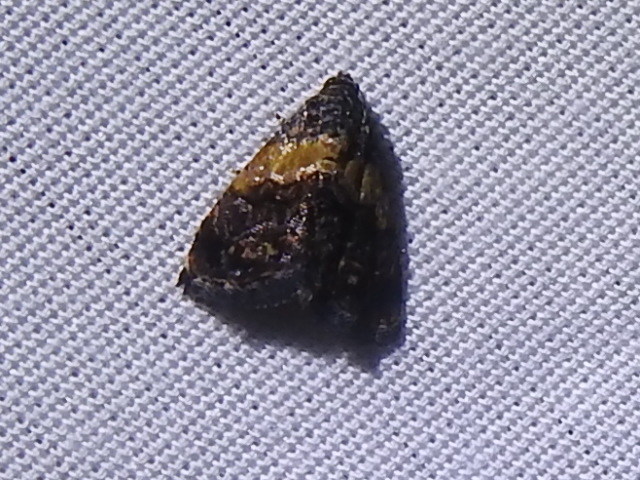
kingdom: Animalia
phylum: Arthropoda
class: Insecta
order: Lepidoptera
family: Noctuidae
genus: Tripudia
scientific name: Tripudia flavofasciata
